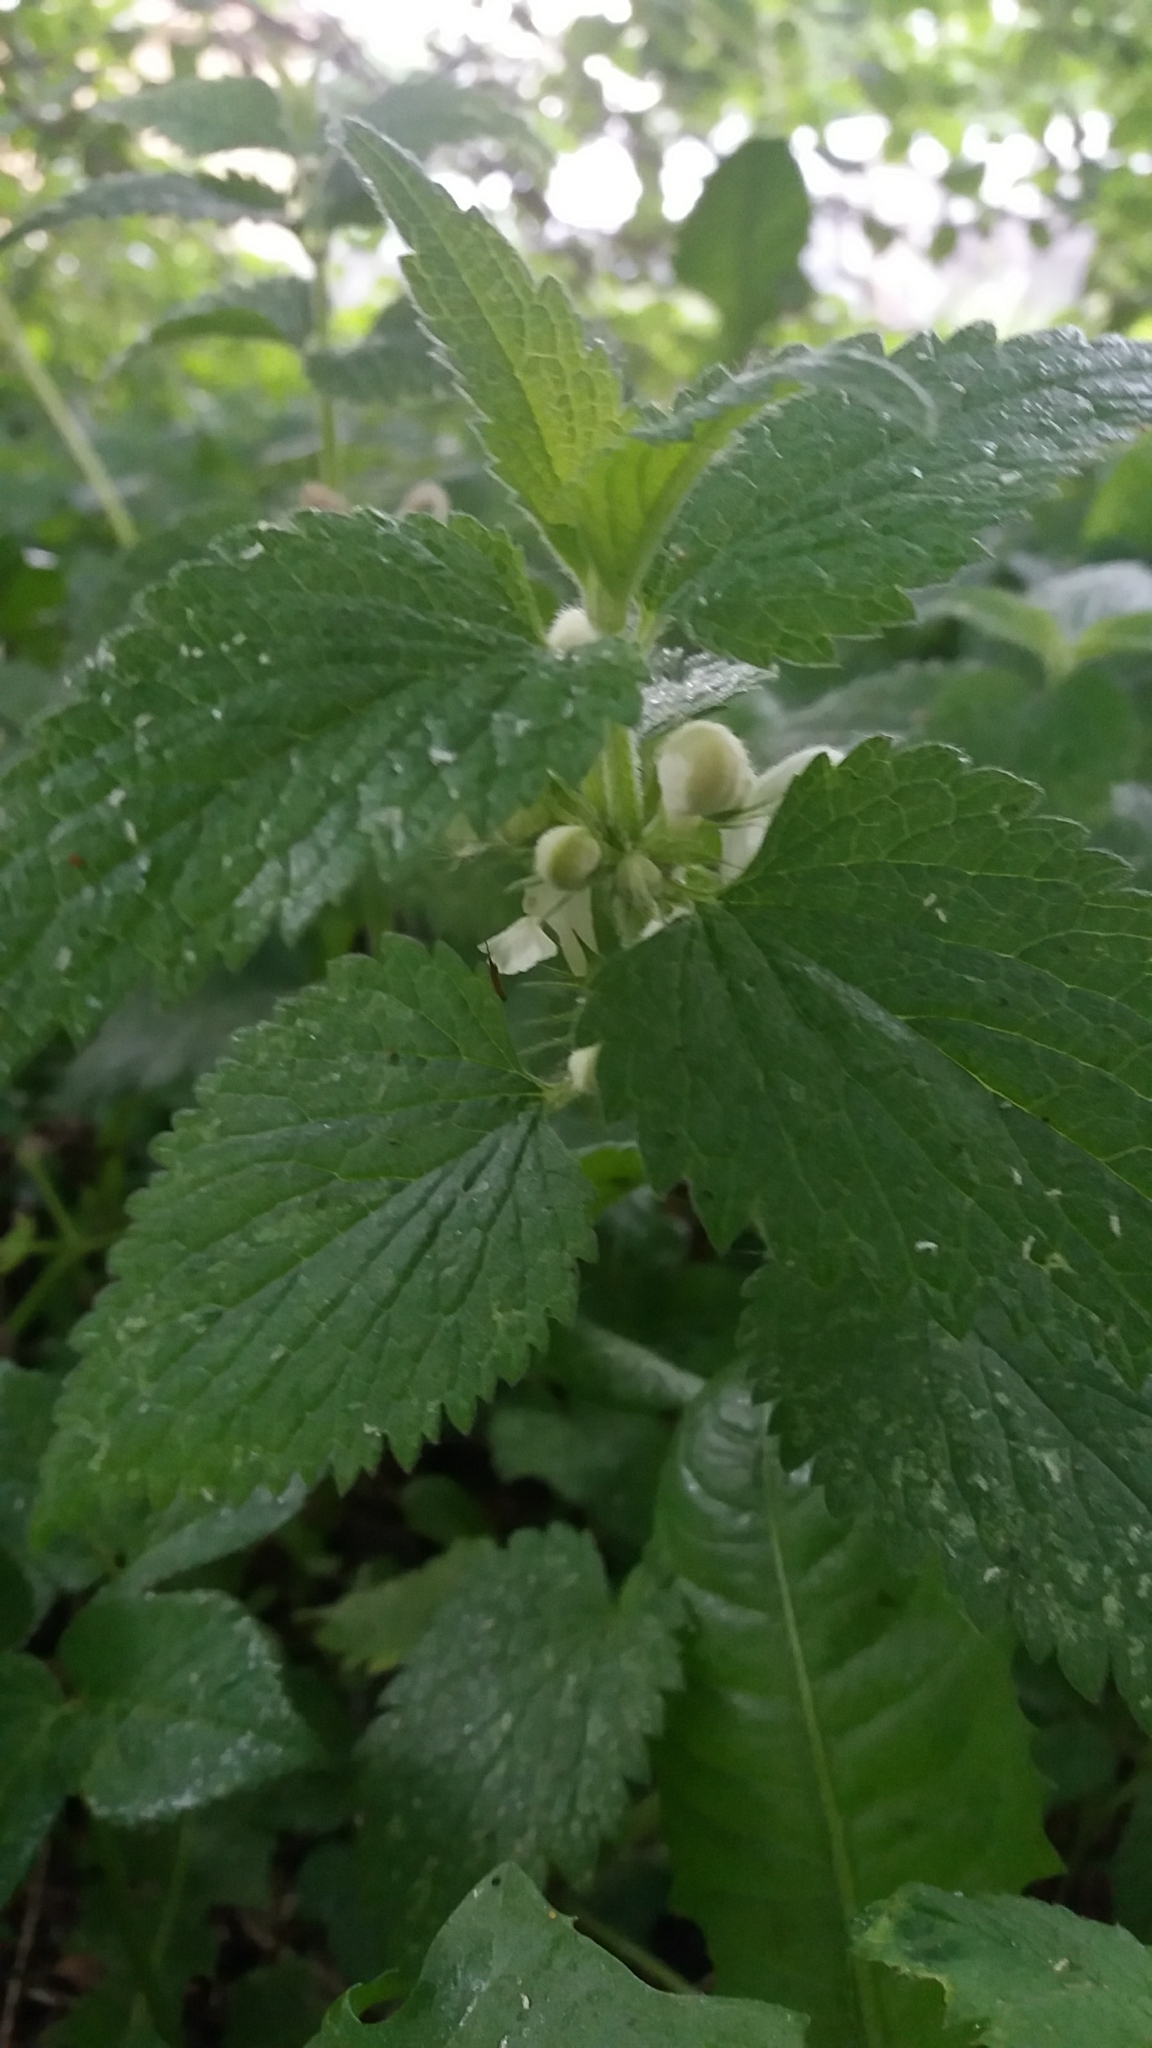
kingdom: Plantae
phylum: Tracheophyta
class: Magnoliopsida
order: Lamiales
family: Lamiaceae
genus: Lamium
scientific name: Lamium album
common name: White dead-nettle
